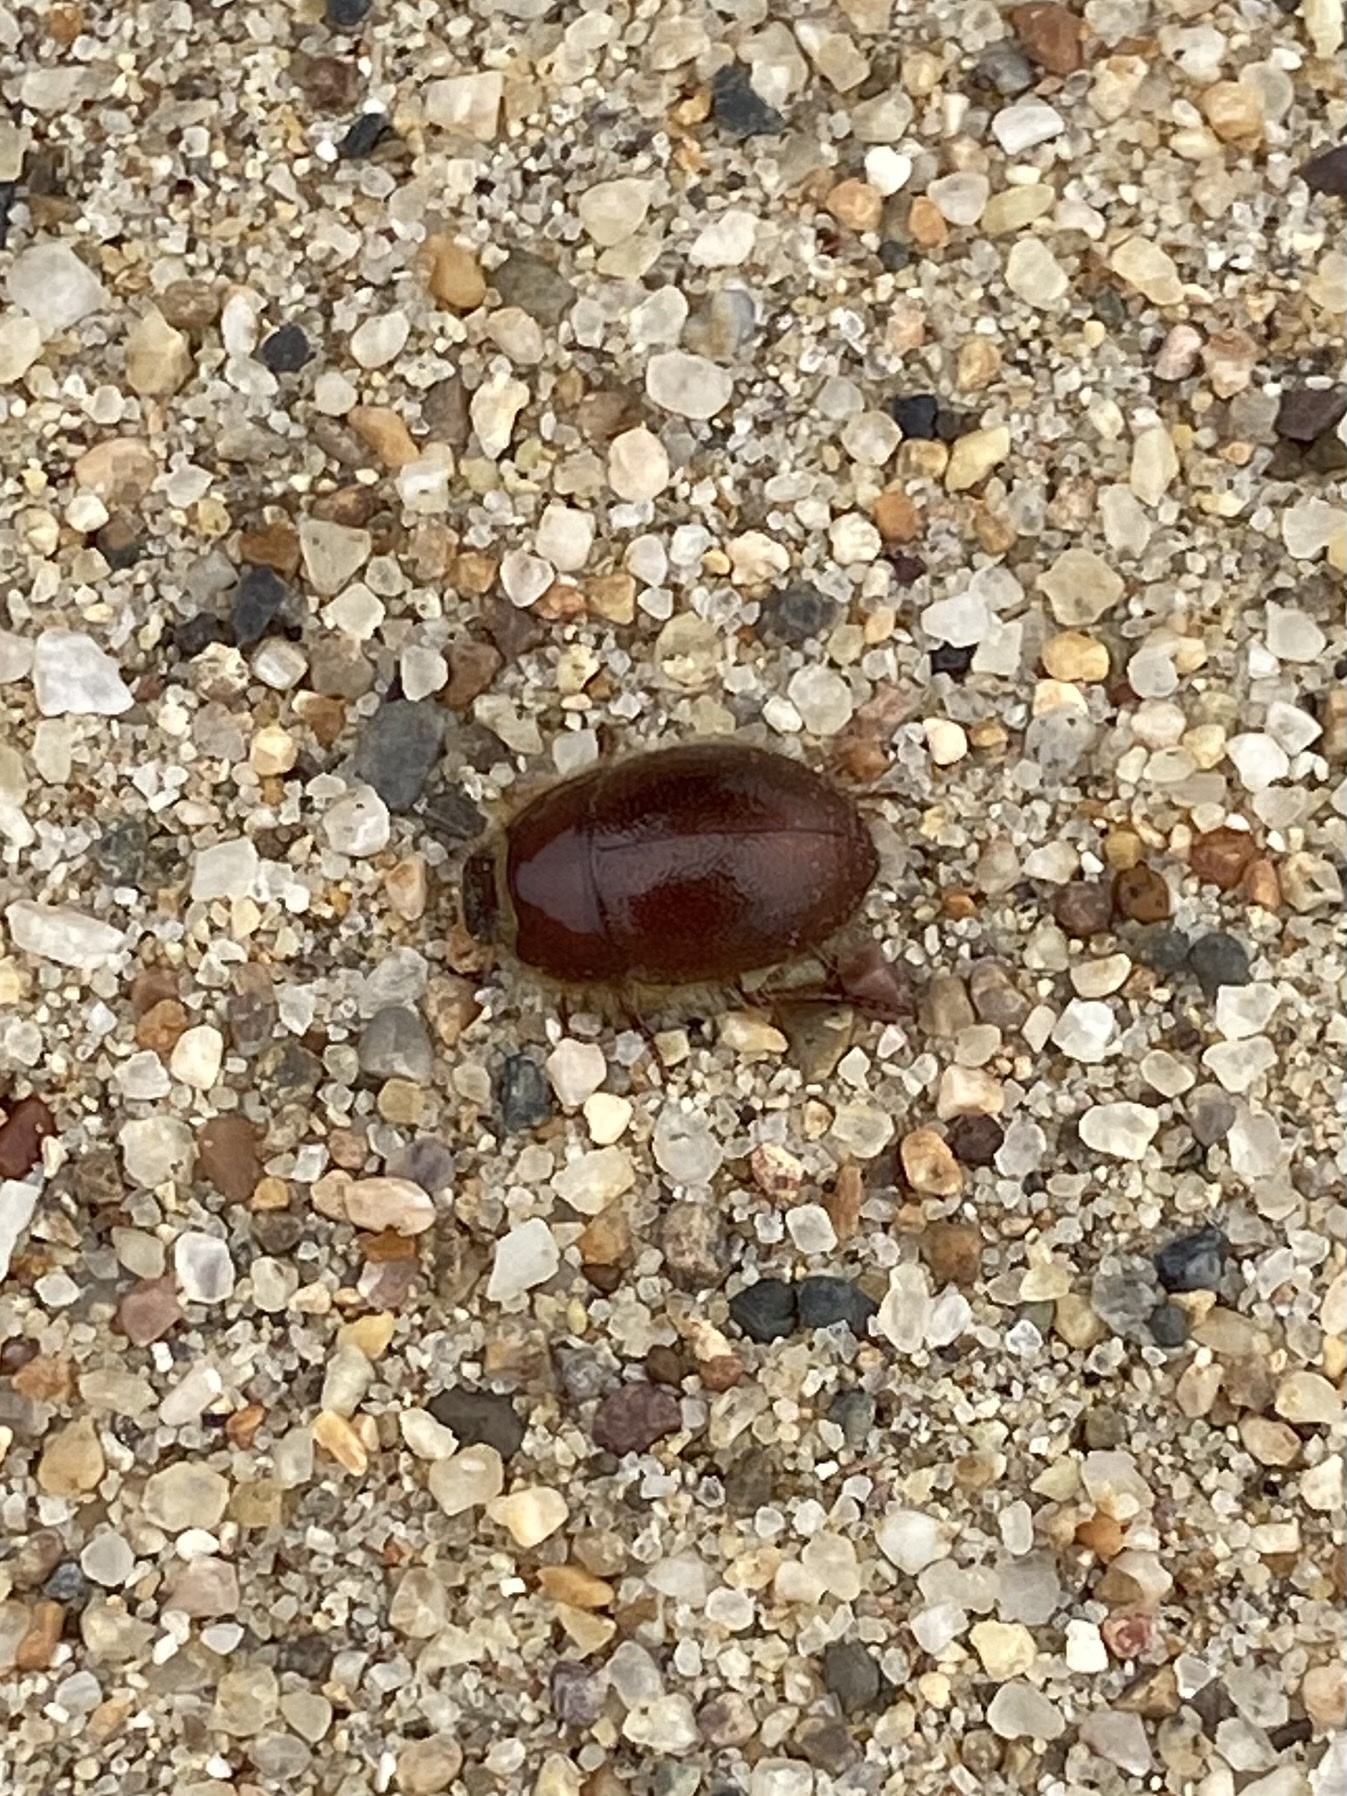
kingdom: Animalia
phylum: Arthropoda
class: Insecta
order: Coleoptera
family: Tenebrionidae
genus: Coelus
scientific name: Coelus ciliatus
